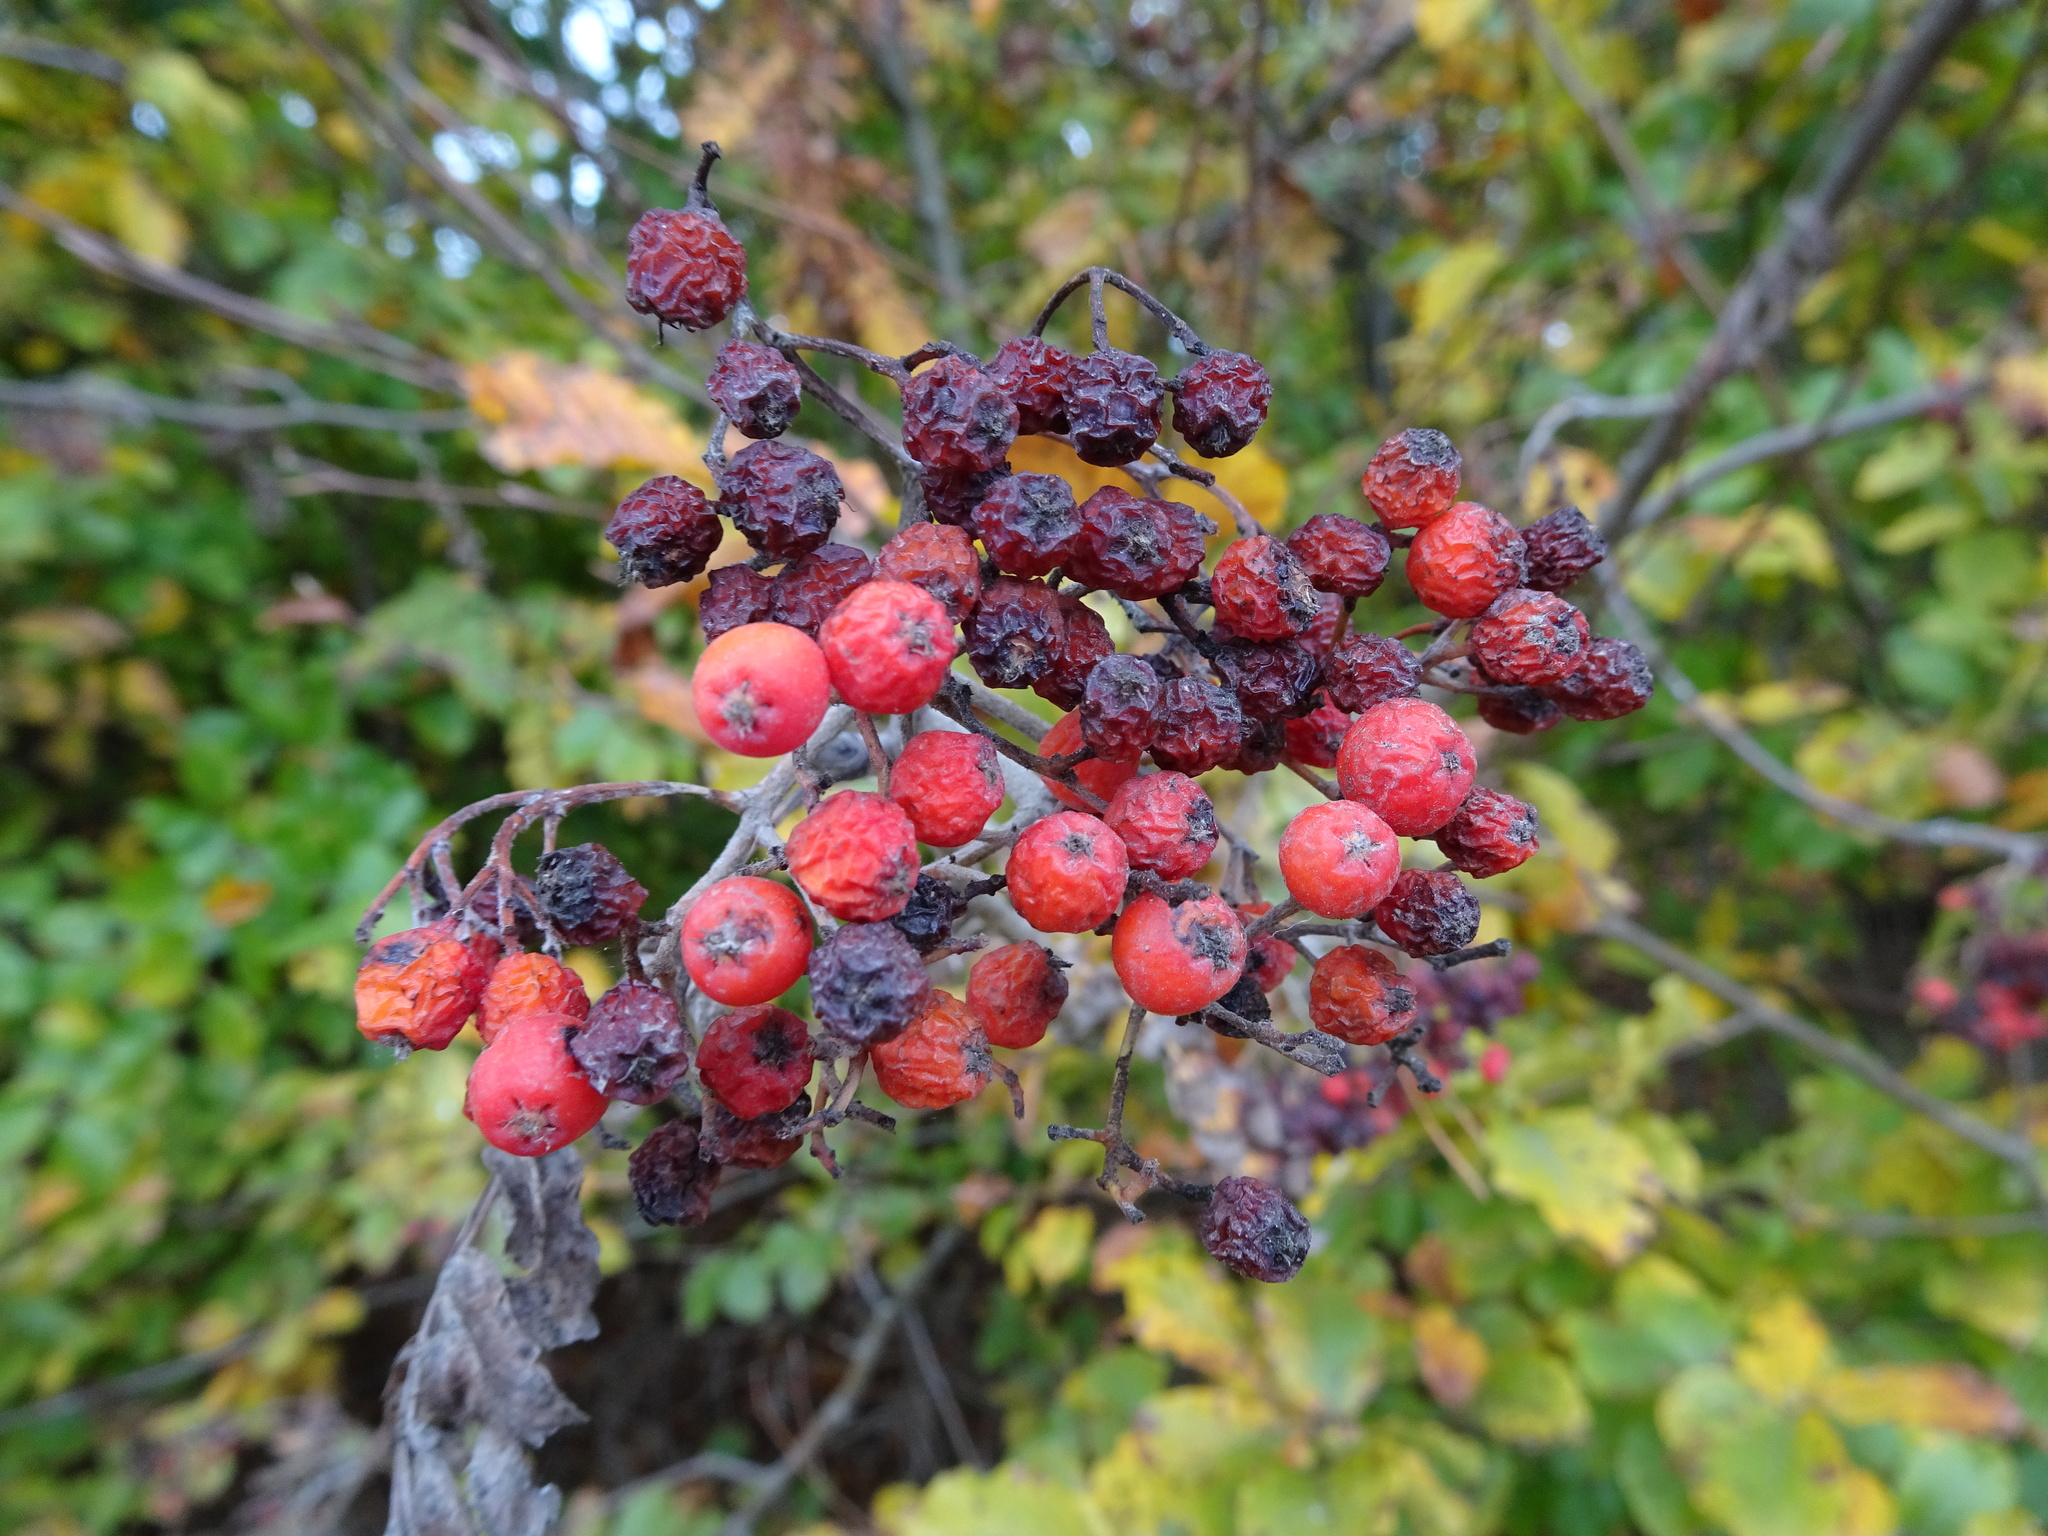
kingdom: Plantae
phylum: Tracheophyta
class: Magnoliopsida
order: Rosales
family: Rosaceae
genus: Sorbus
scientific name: Sorbus aucuparia
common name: Rowan
